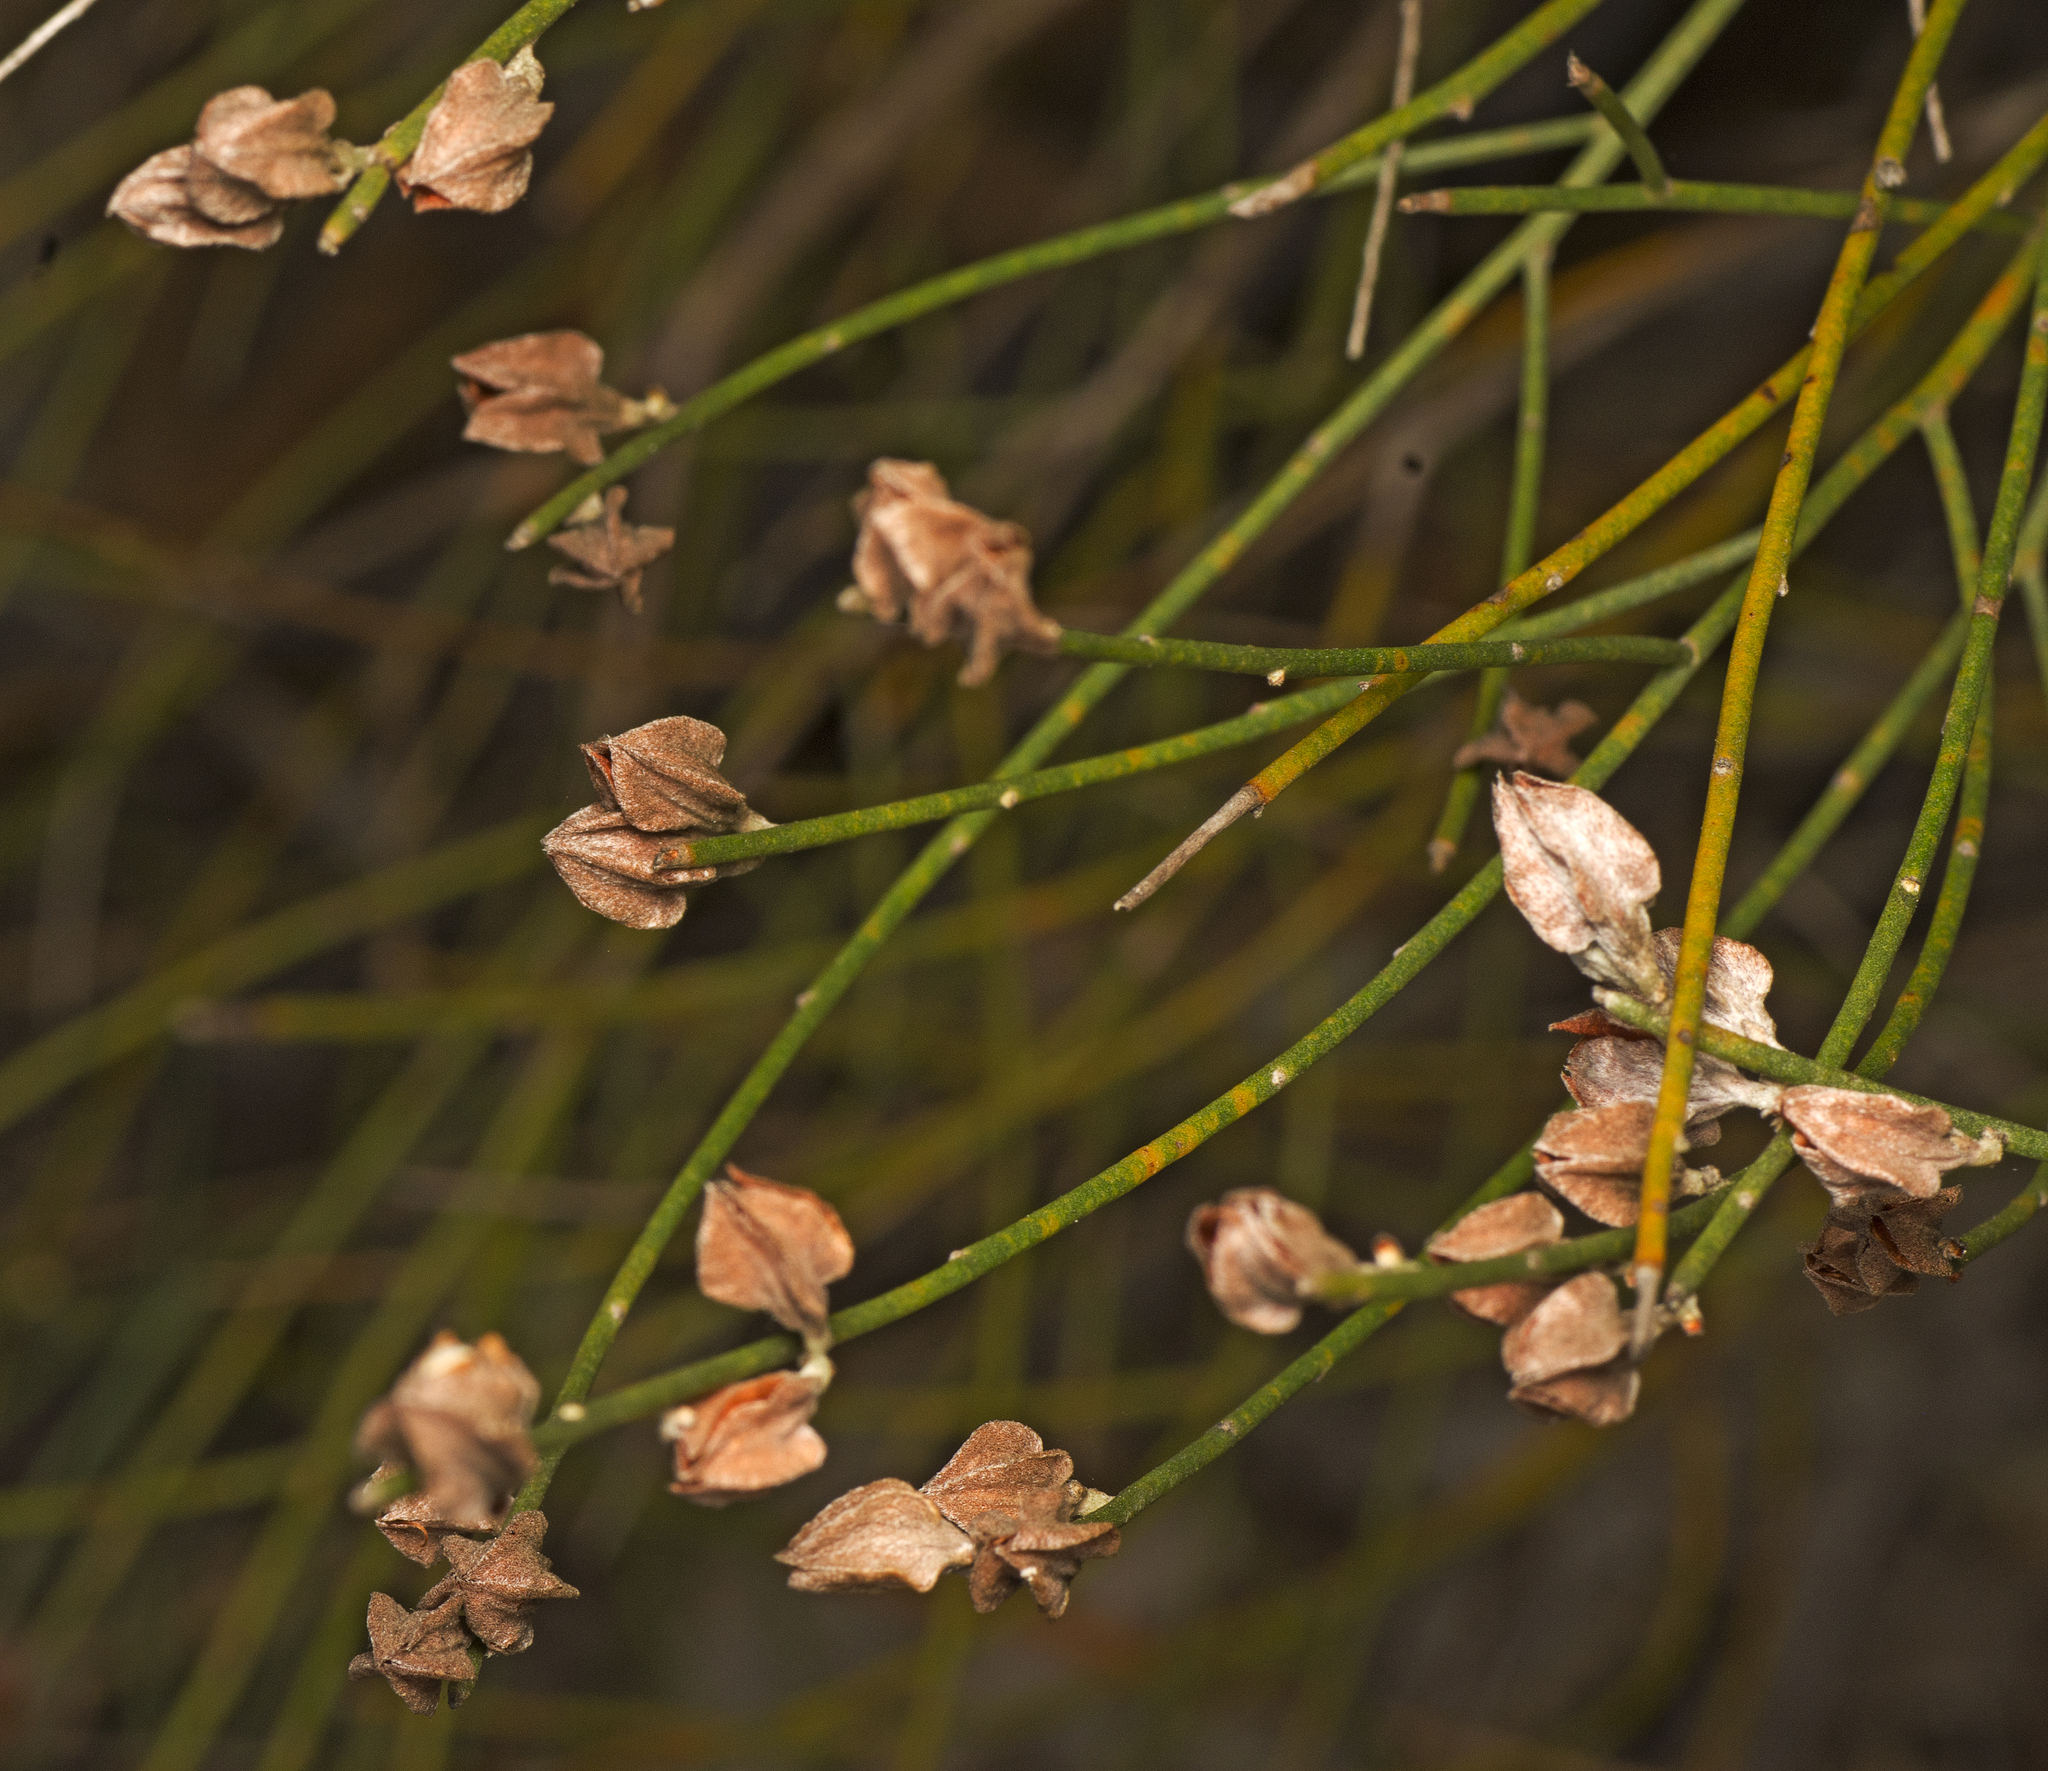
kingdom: Plantae
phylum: Tracheophyta
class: Magnoliopsida
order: Fabales
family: Fabaceae
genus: Jacksonia
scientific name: Jacksonia stackhousei
